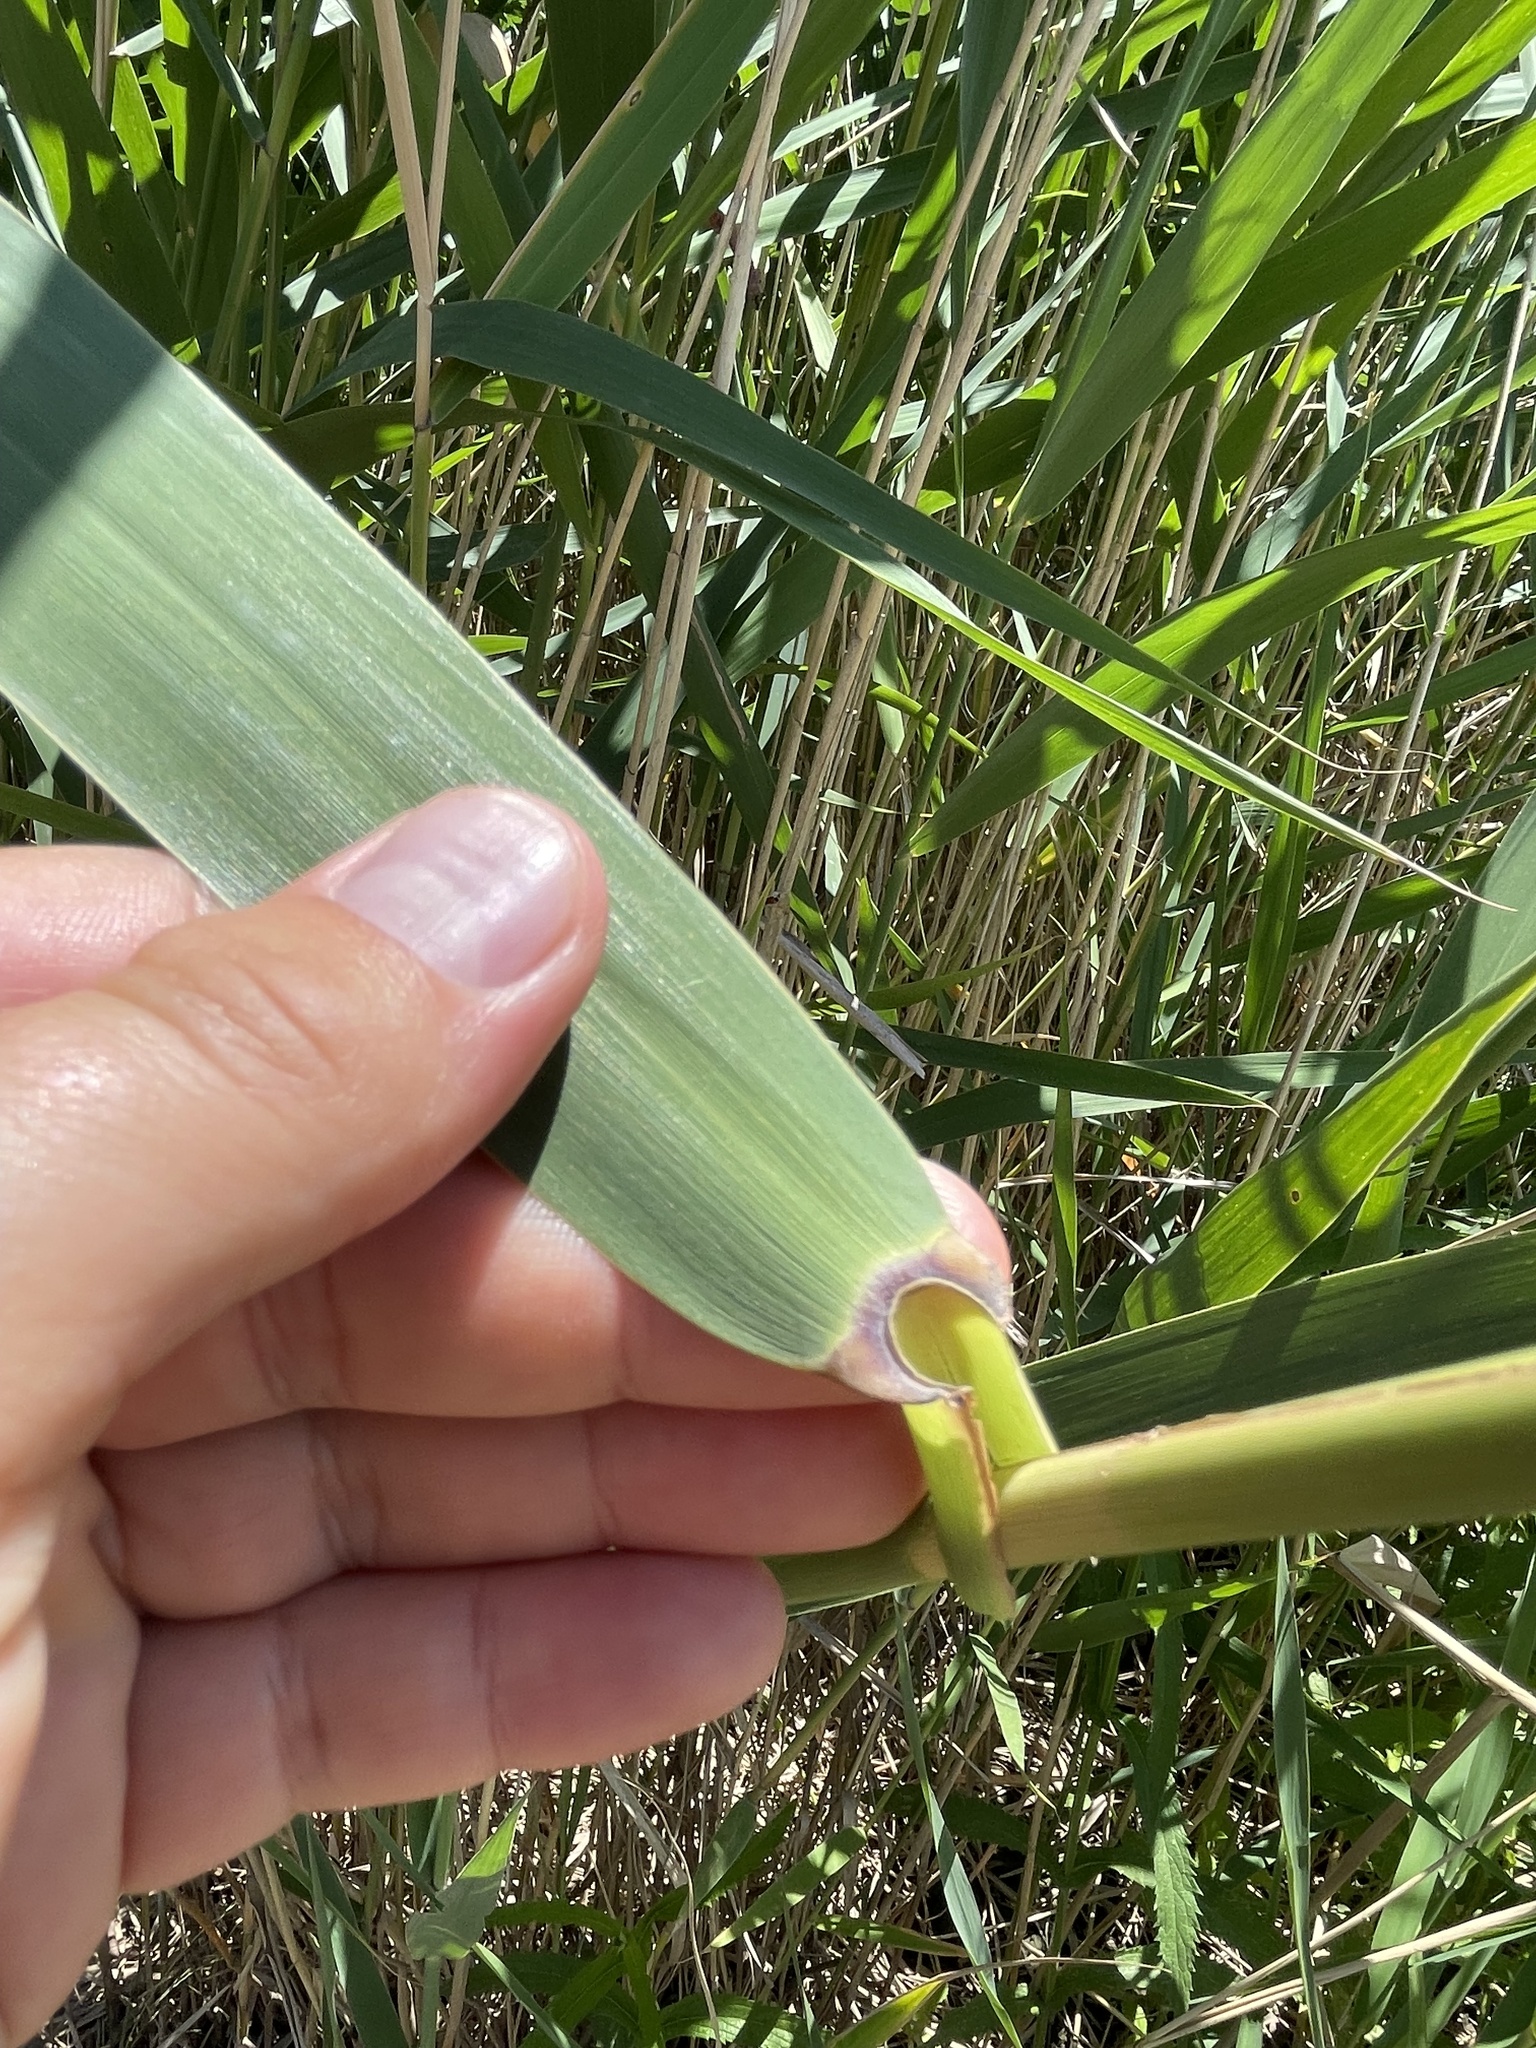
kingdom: Plantae
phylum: Tracheophyta
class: Liliopsida
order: Poales
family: Poaceae
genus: Phragmites
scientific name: Phragmites australis
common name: Common reed
